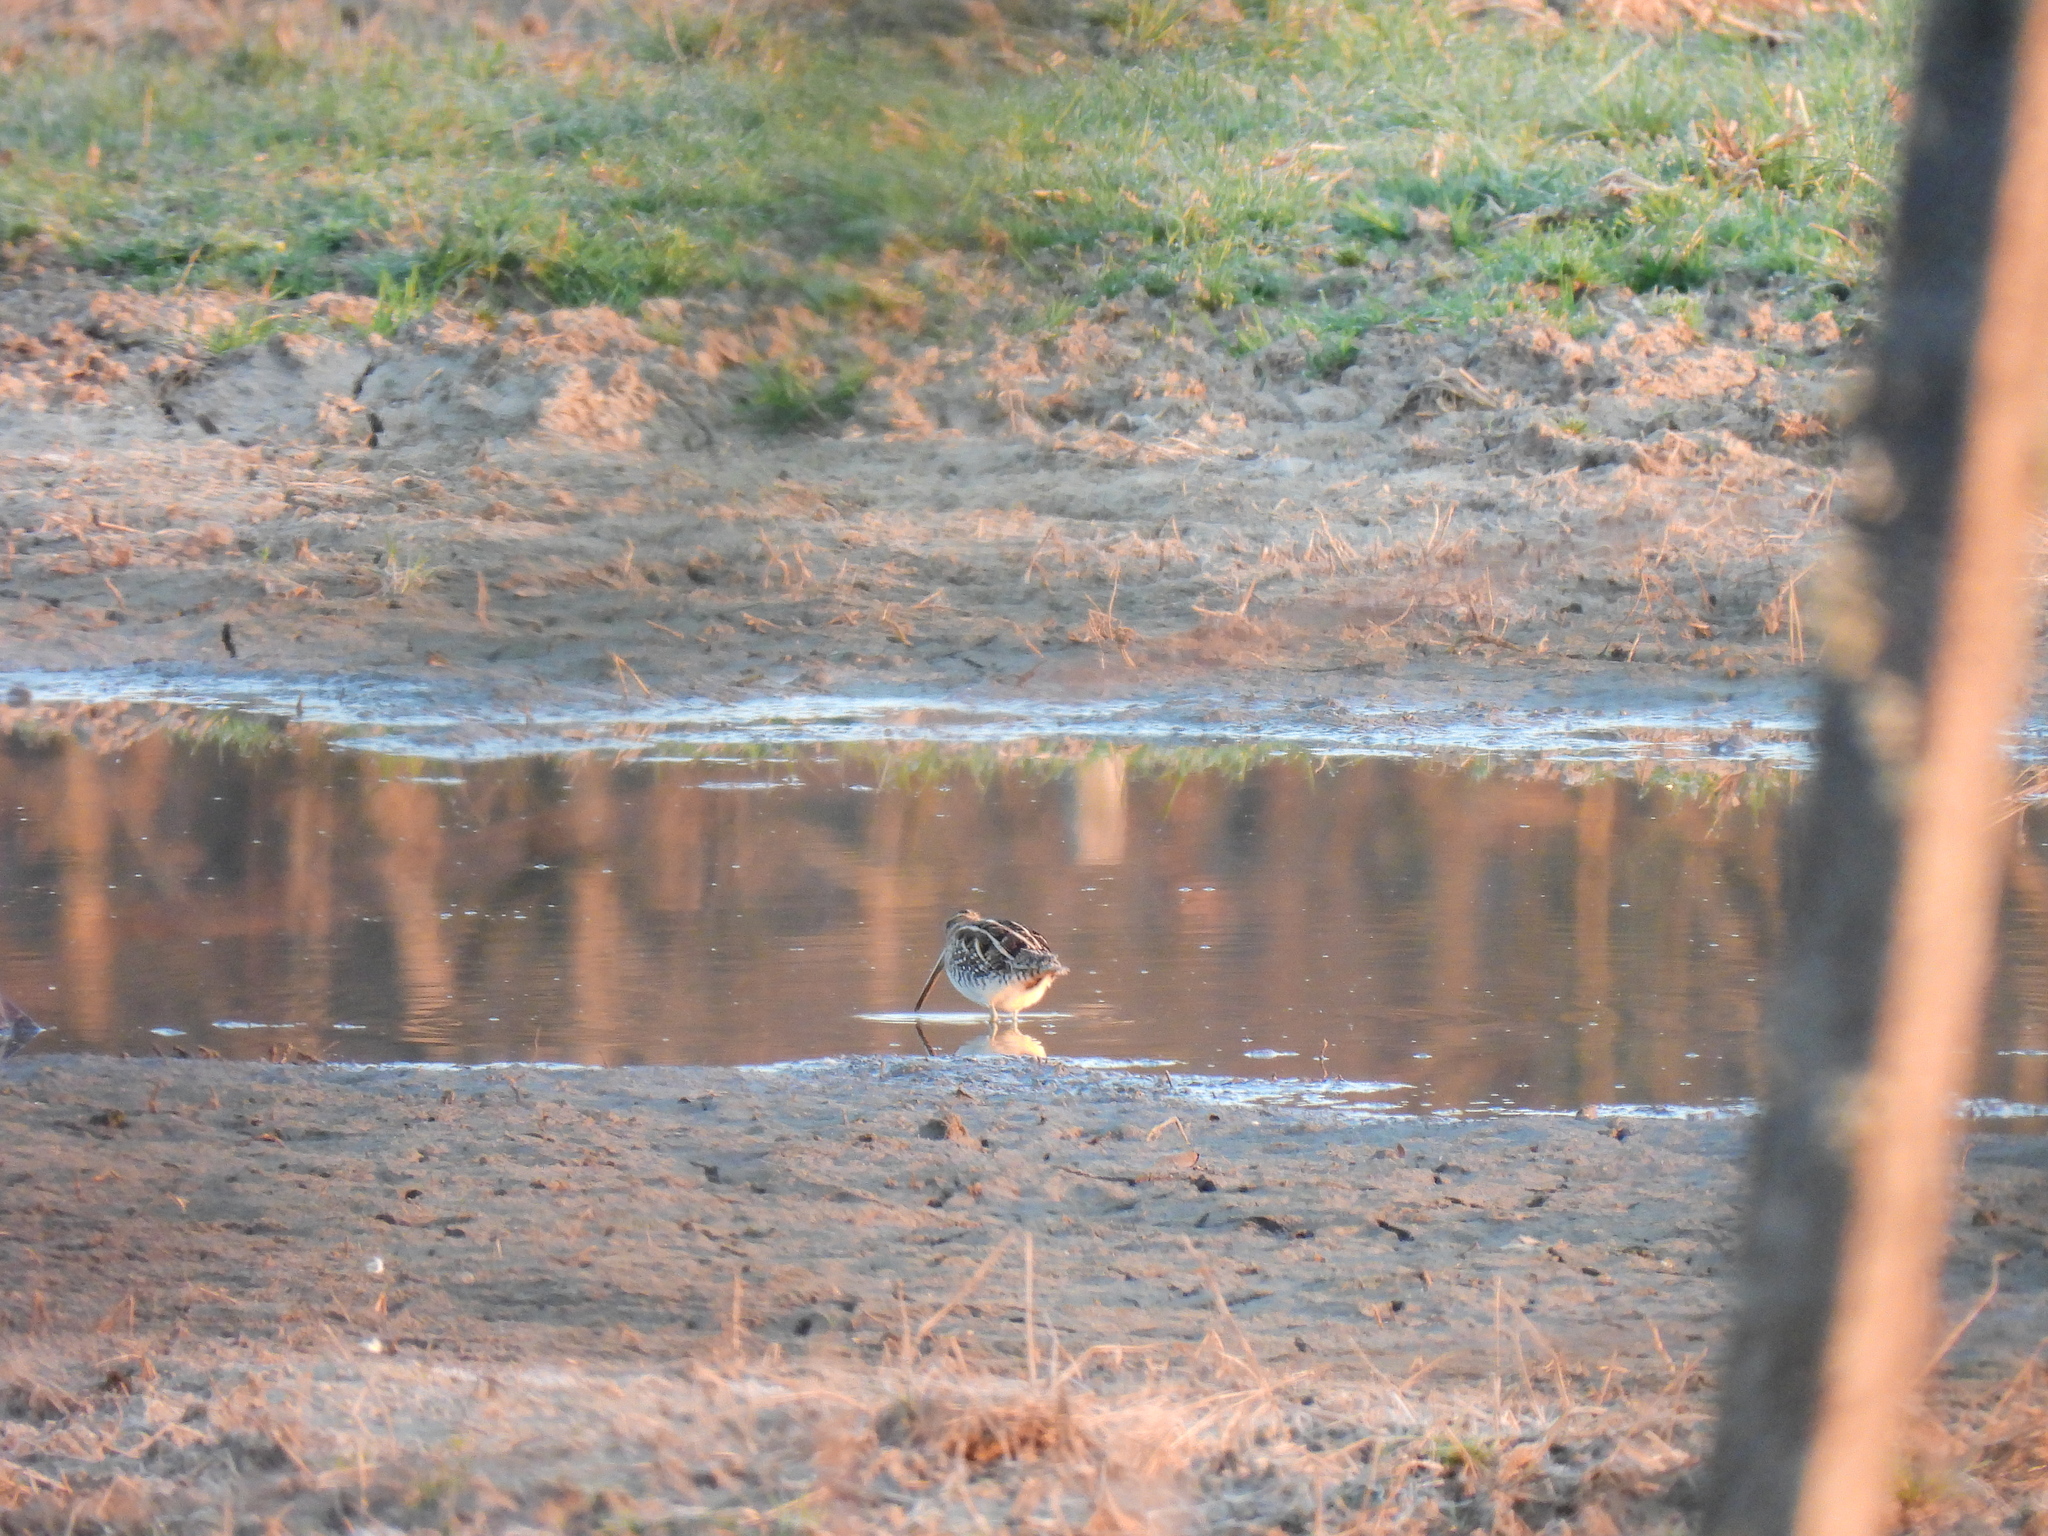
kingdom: Animalia
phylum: Chordata
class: Aves
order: Charadriiformes
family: Scolopacidae
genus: Gallinago
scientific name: Gallinago gallinago
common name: Common snipe
